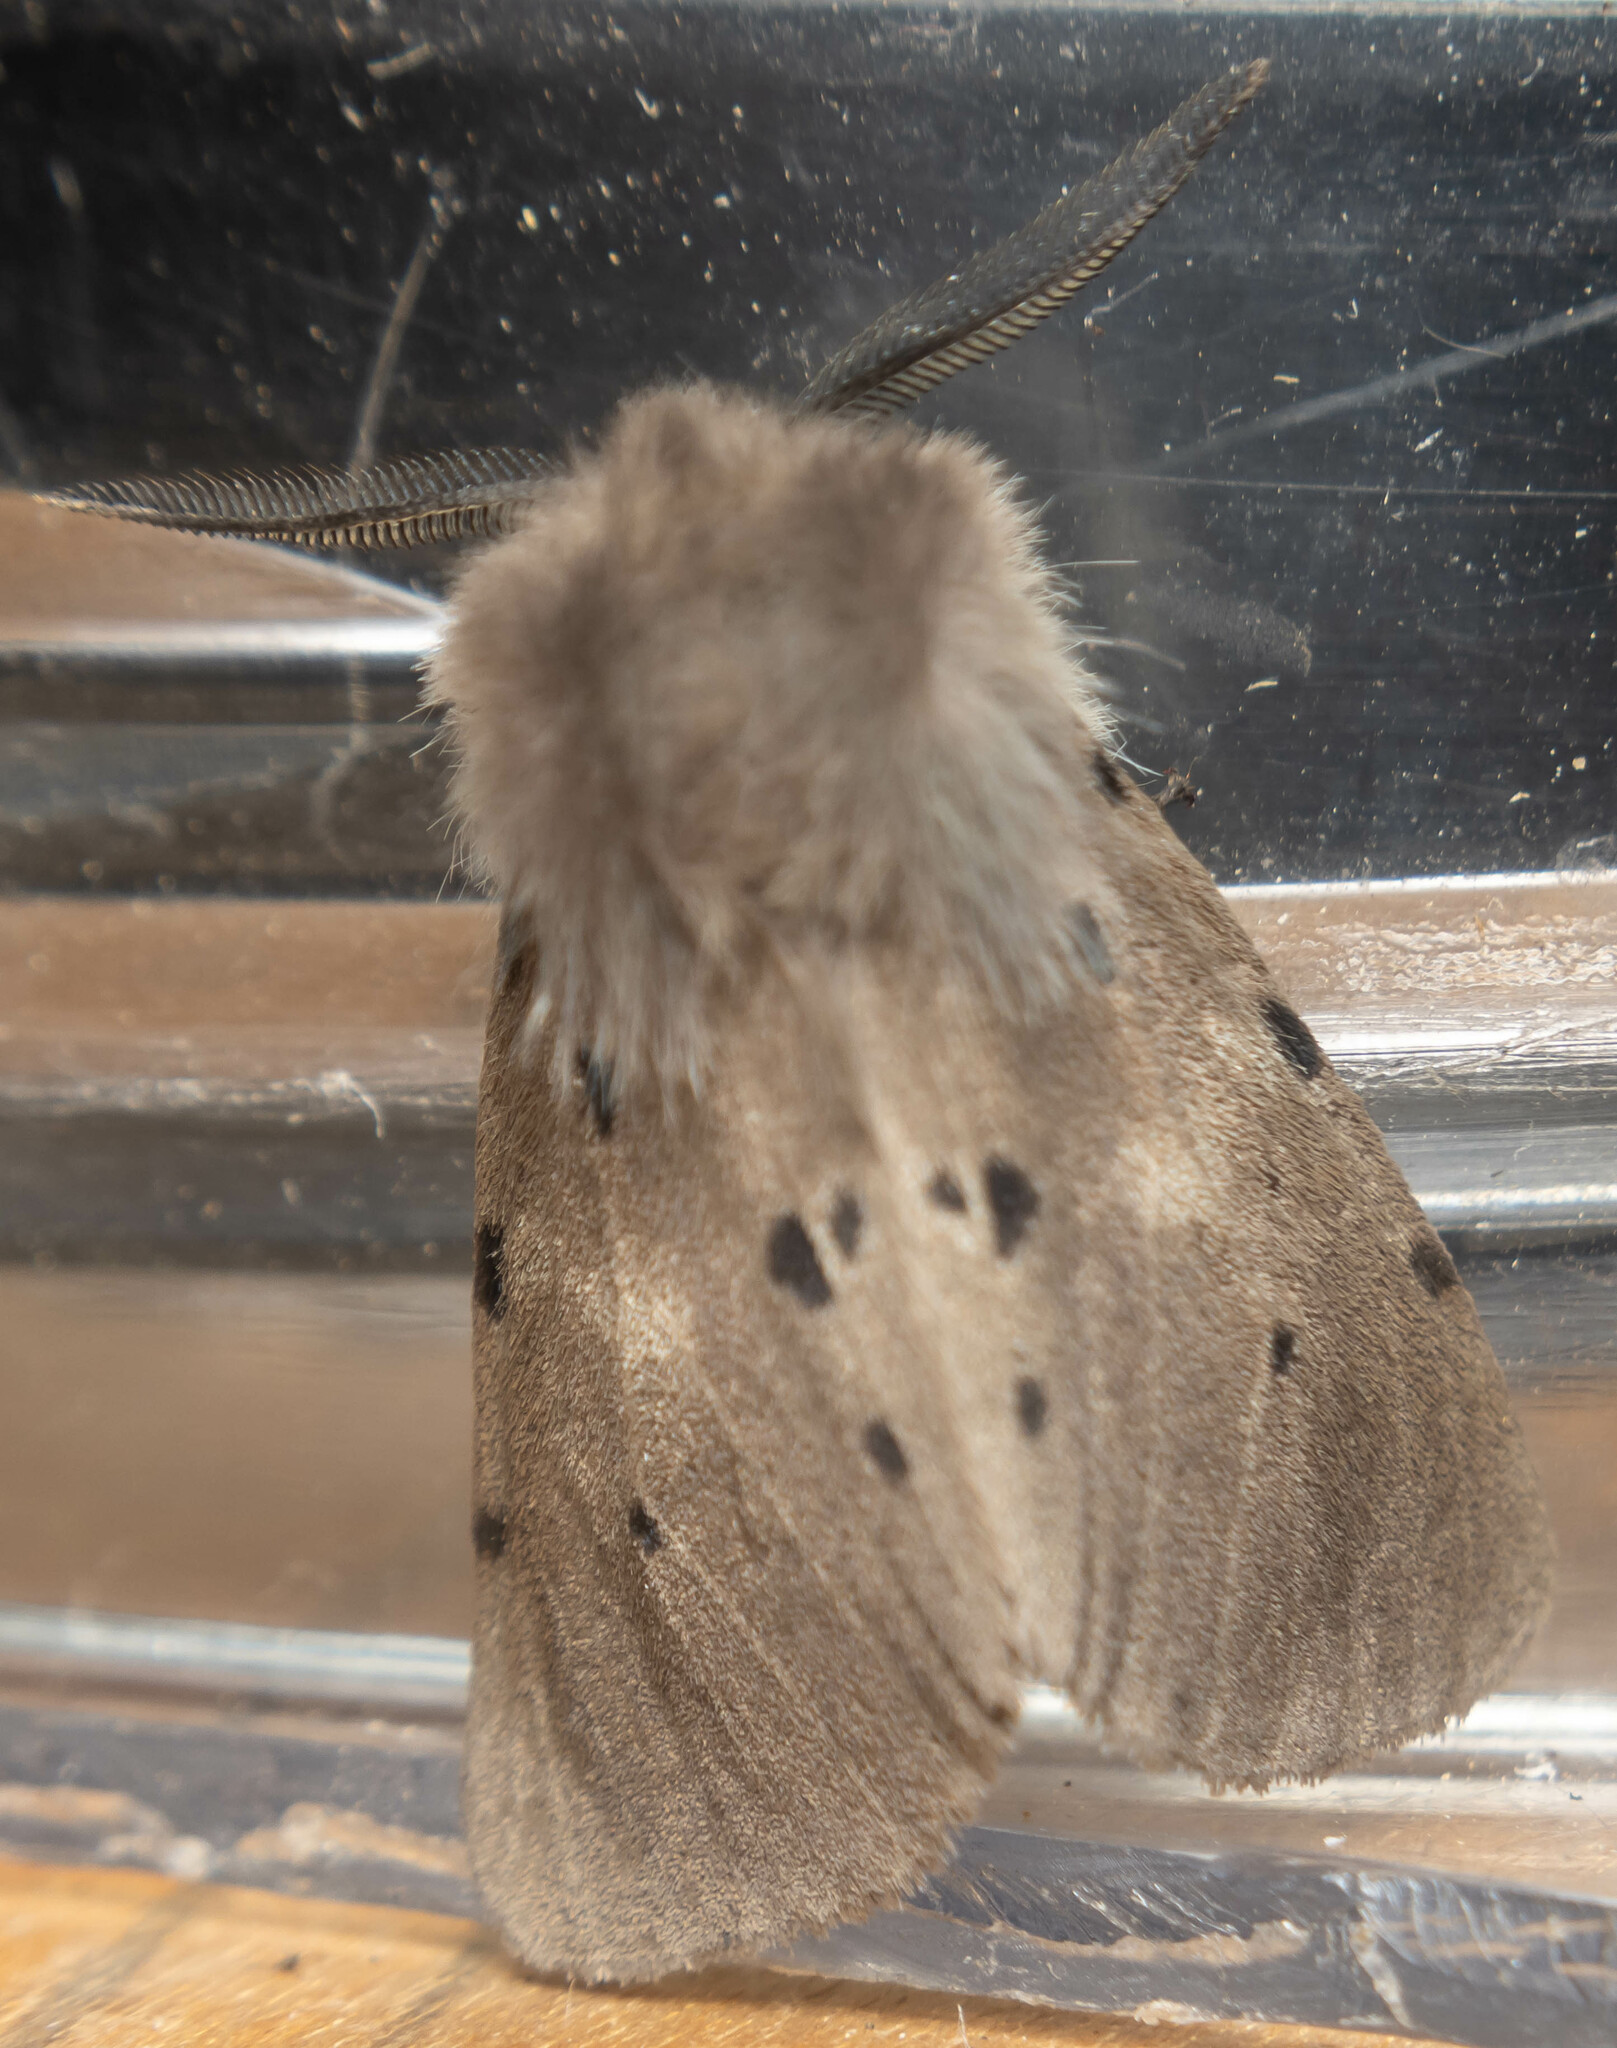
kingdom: Animalia
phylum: Arthropoda
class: Insecta
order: Lepidoptera
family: Erebidae
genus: Diaphora
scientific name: Diaphora mendica
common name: Muslin moth
